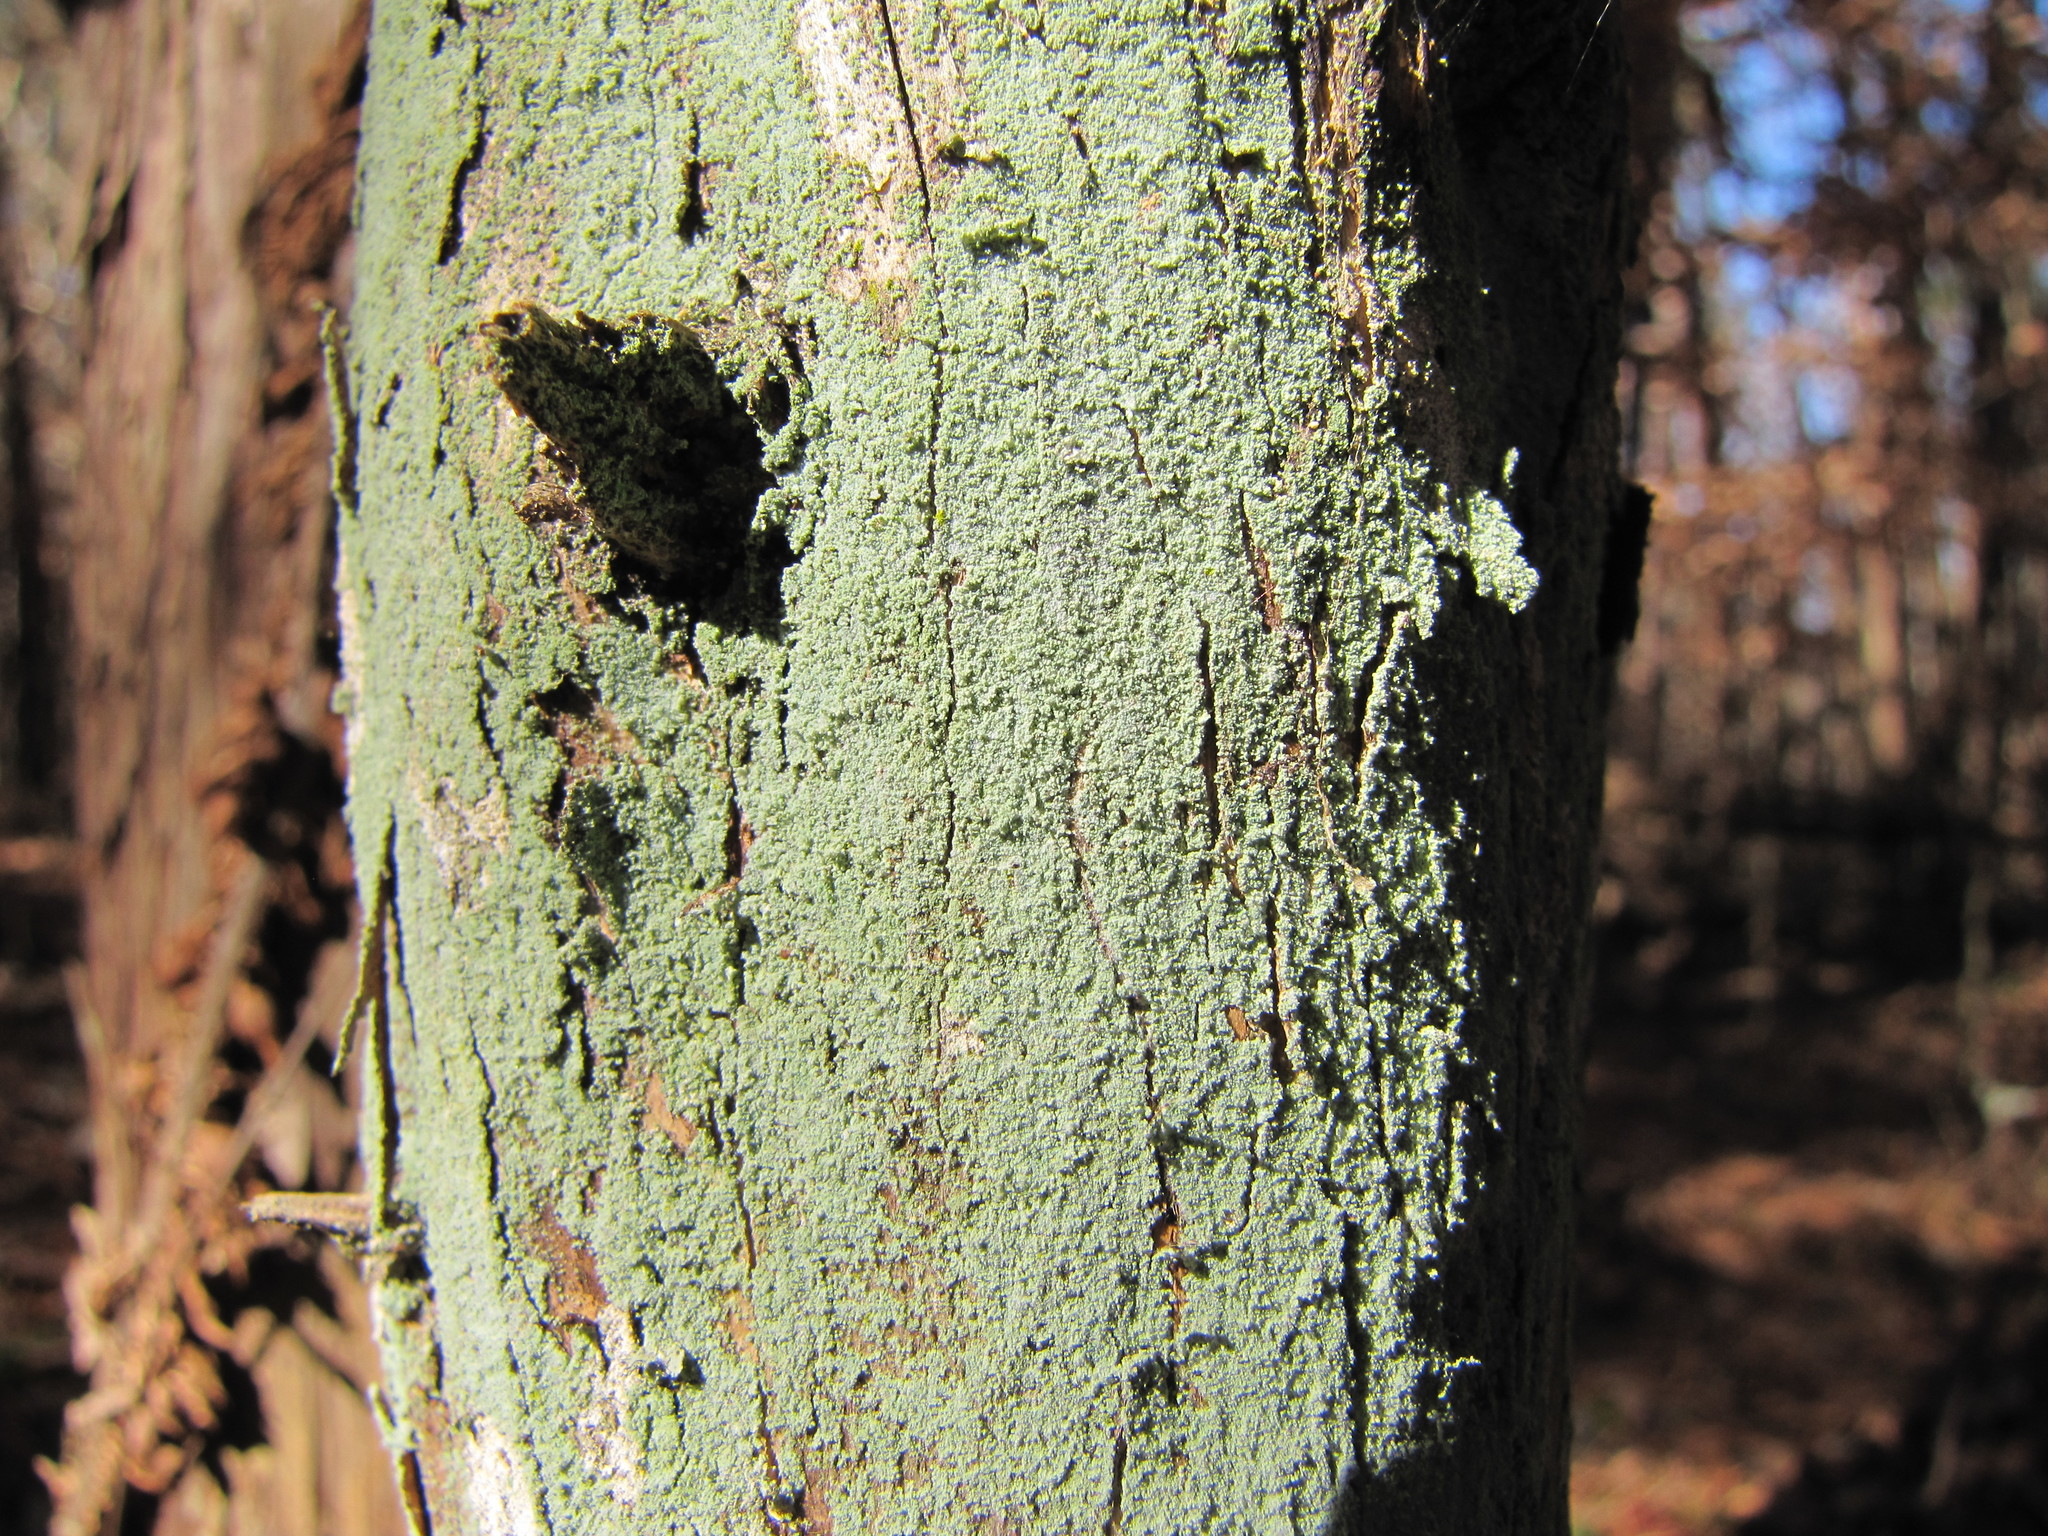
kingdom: Fungi
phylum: Ascomycota
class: Lecanoromycetes
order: Lecanorales
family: Stereocaulaceae
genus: Lepraria
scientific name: Lepraria lobificans
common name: Fluffy dust lichen
